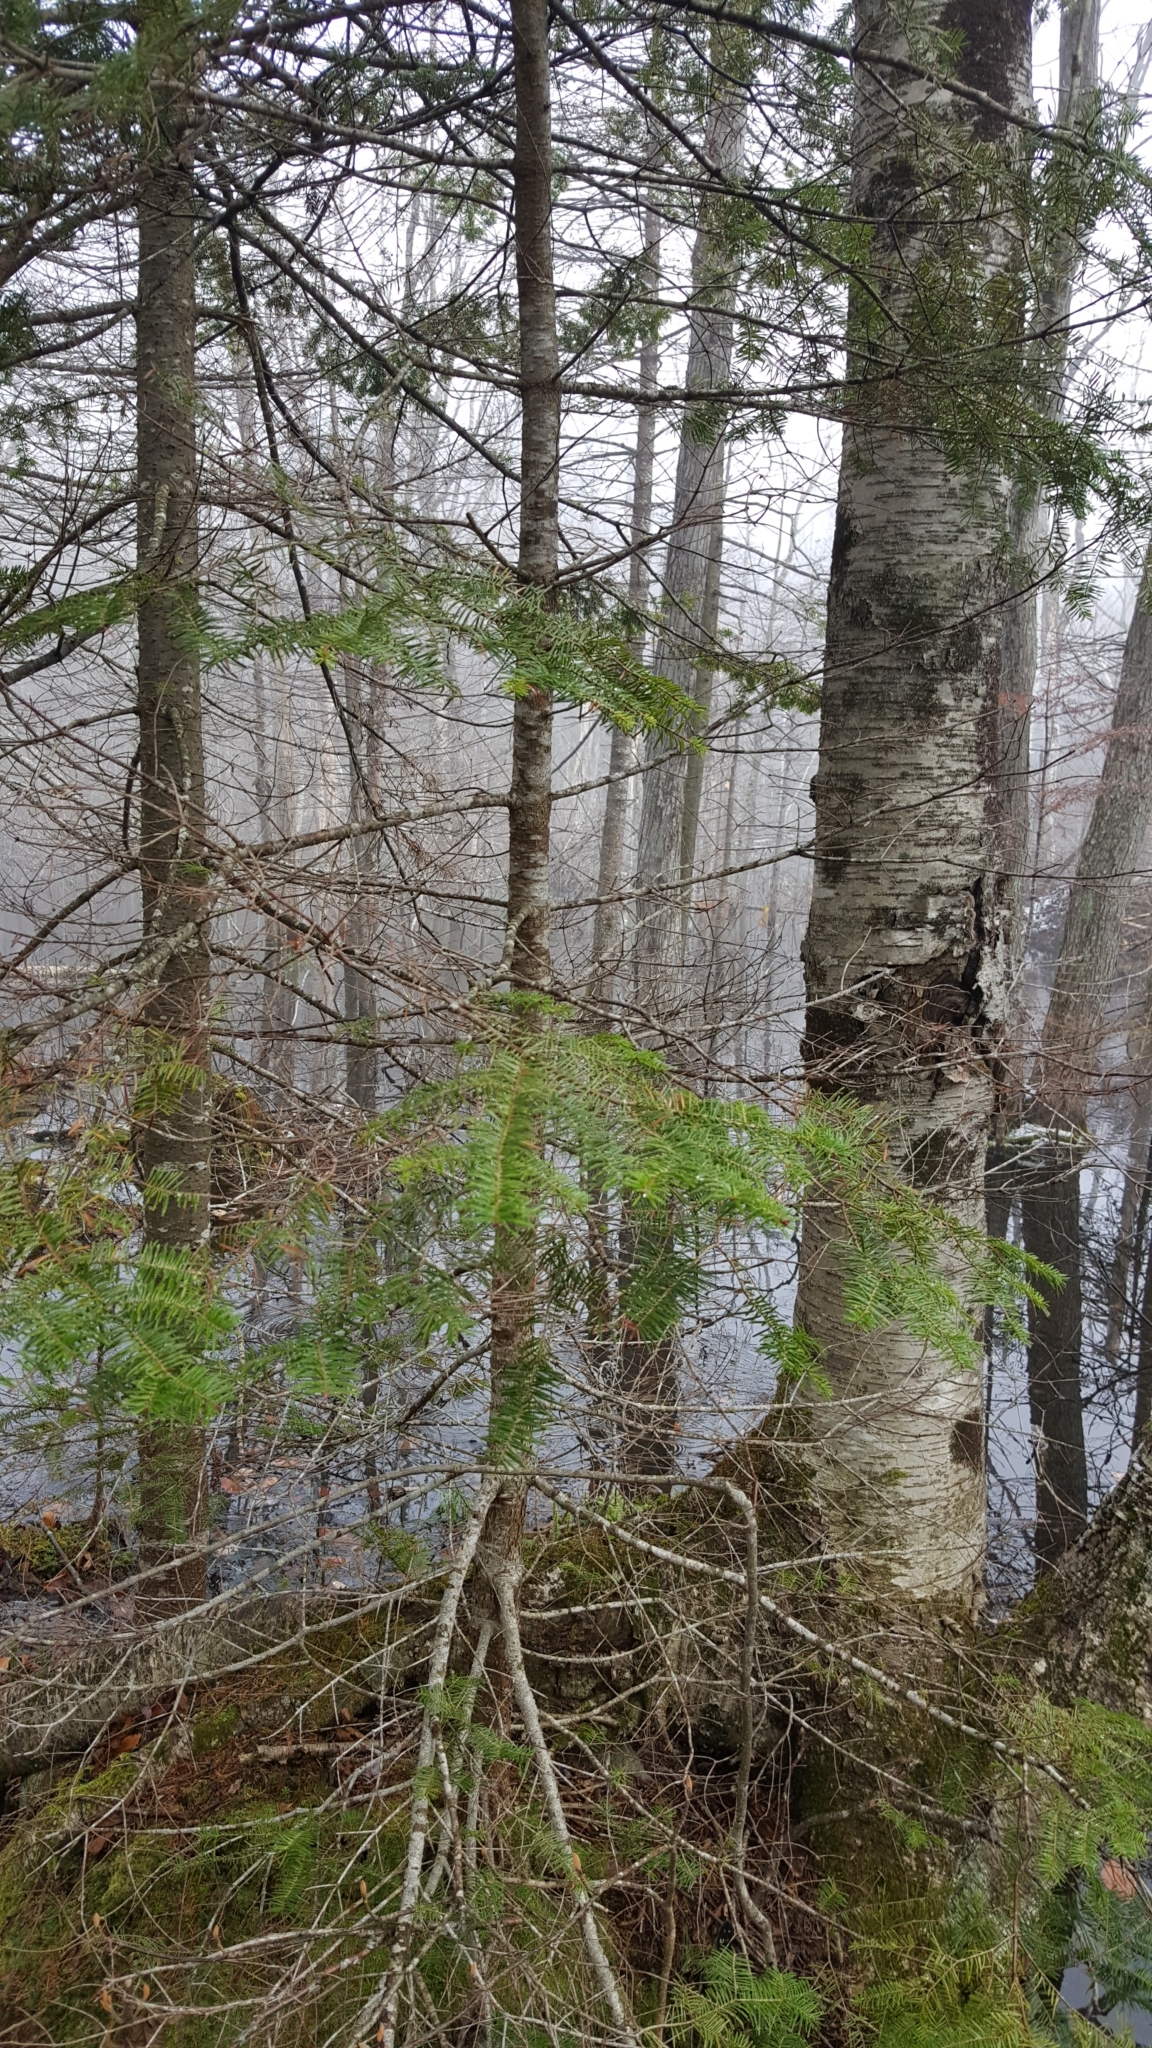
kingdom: Plantae
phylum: Tracheophyta
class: Pinopsida
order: Pinales
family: Pinaceae
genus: Abies
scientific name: Abies balsamea
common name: Balsam fir
